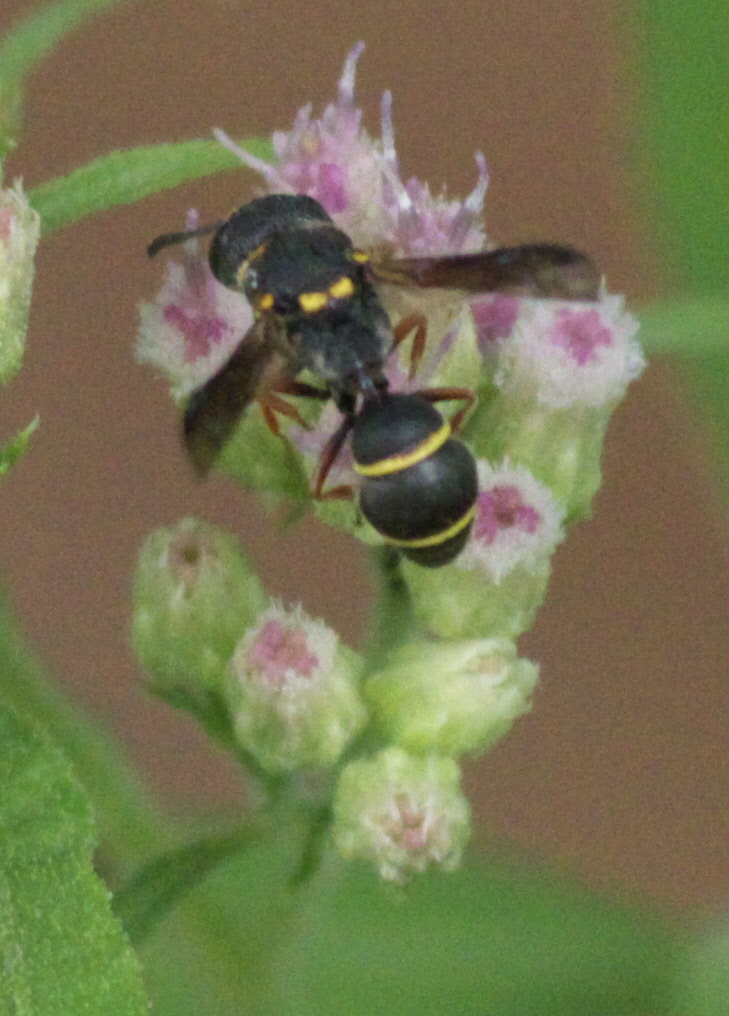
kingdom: Animalia
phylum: Arthropoda
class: Insecta
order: Hymenoptera
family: Eumenidae
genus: Cyrtolabulus
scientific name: Cyrtolabulus mutinensis
